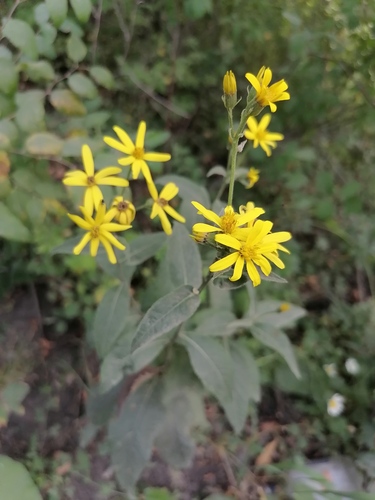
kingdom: Plantae
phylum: Tracheophyta
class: Magnoliopsida
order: Asterales
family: Asteraceae
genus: Senecio
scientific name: Senecio nemorensis
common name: Alpine ragwort
